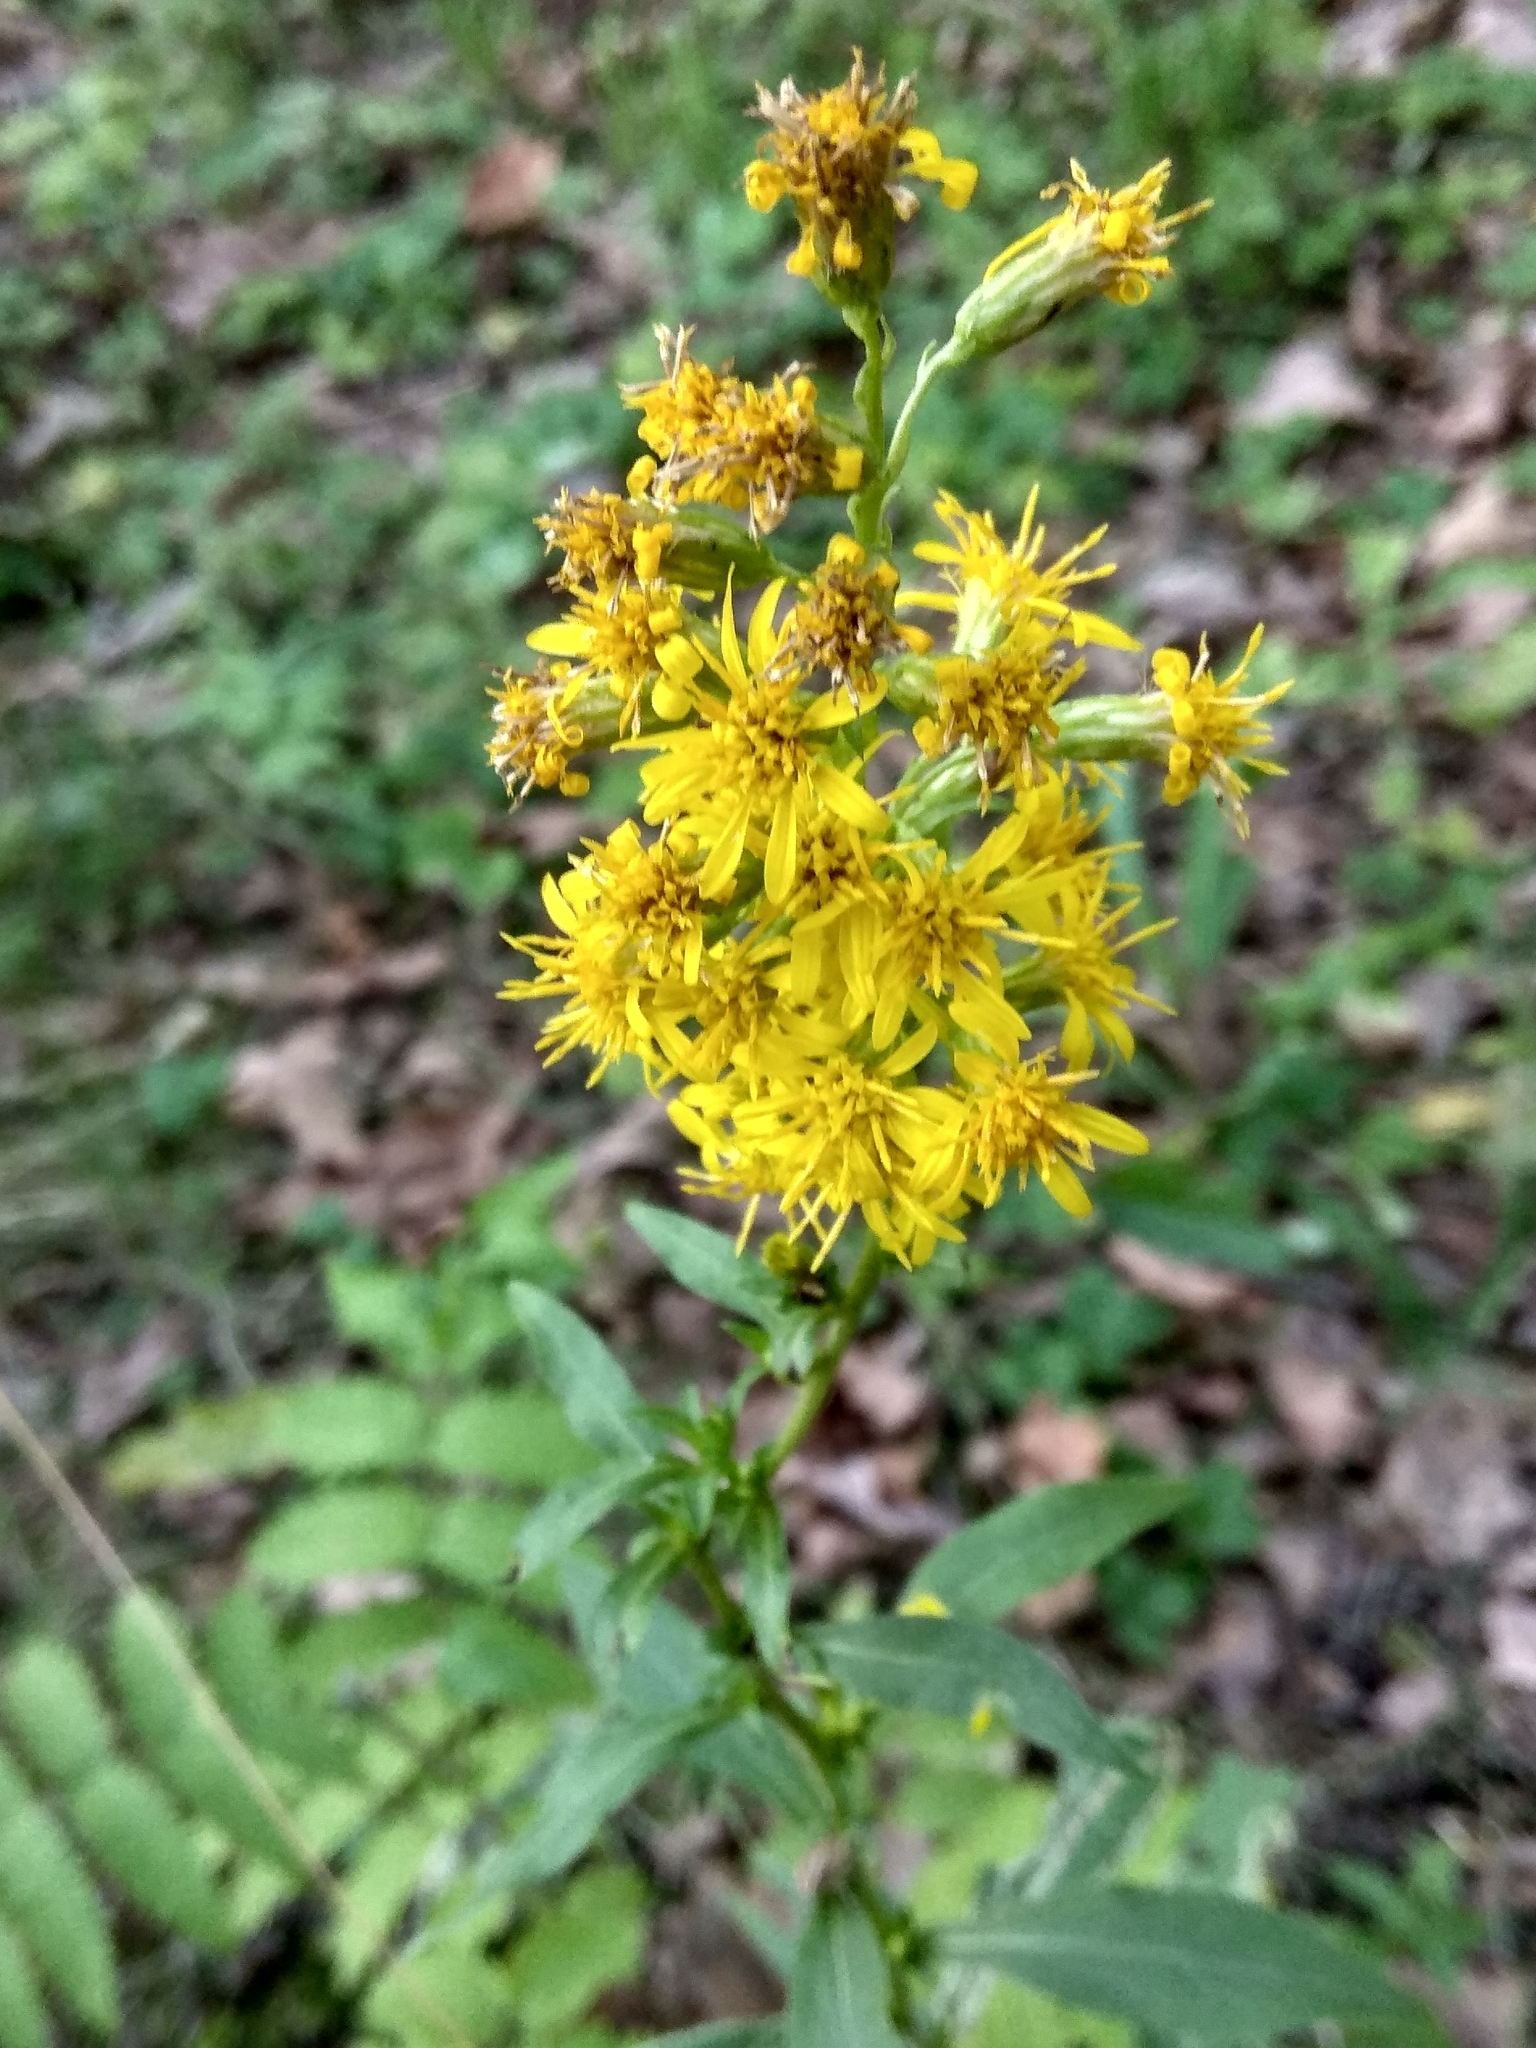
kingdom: Plantae
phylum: Tracheophyta
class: Magnoliopsida
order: Asterales
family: Asteraceae
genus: Solidago
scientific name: Solidago virgaurea
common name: Goldenrod
